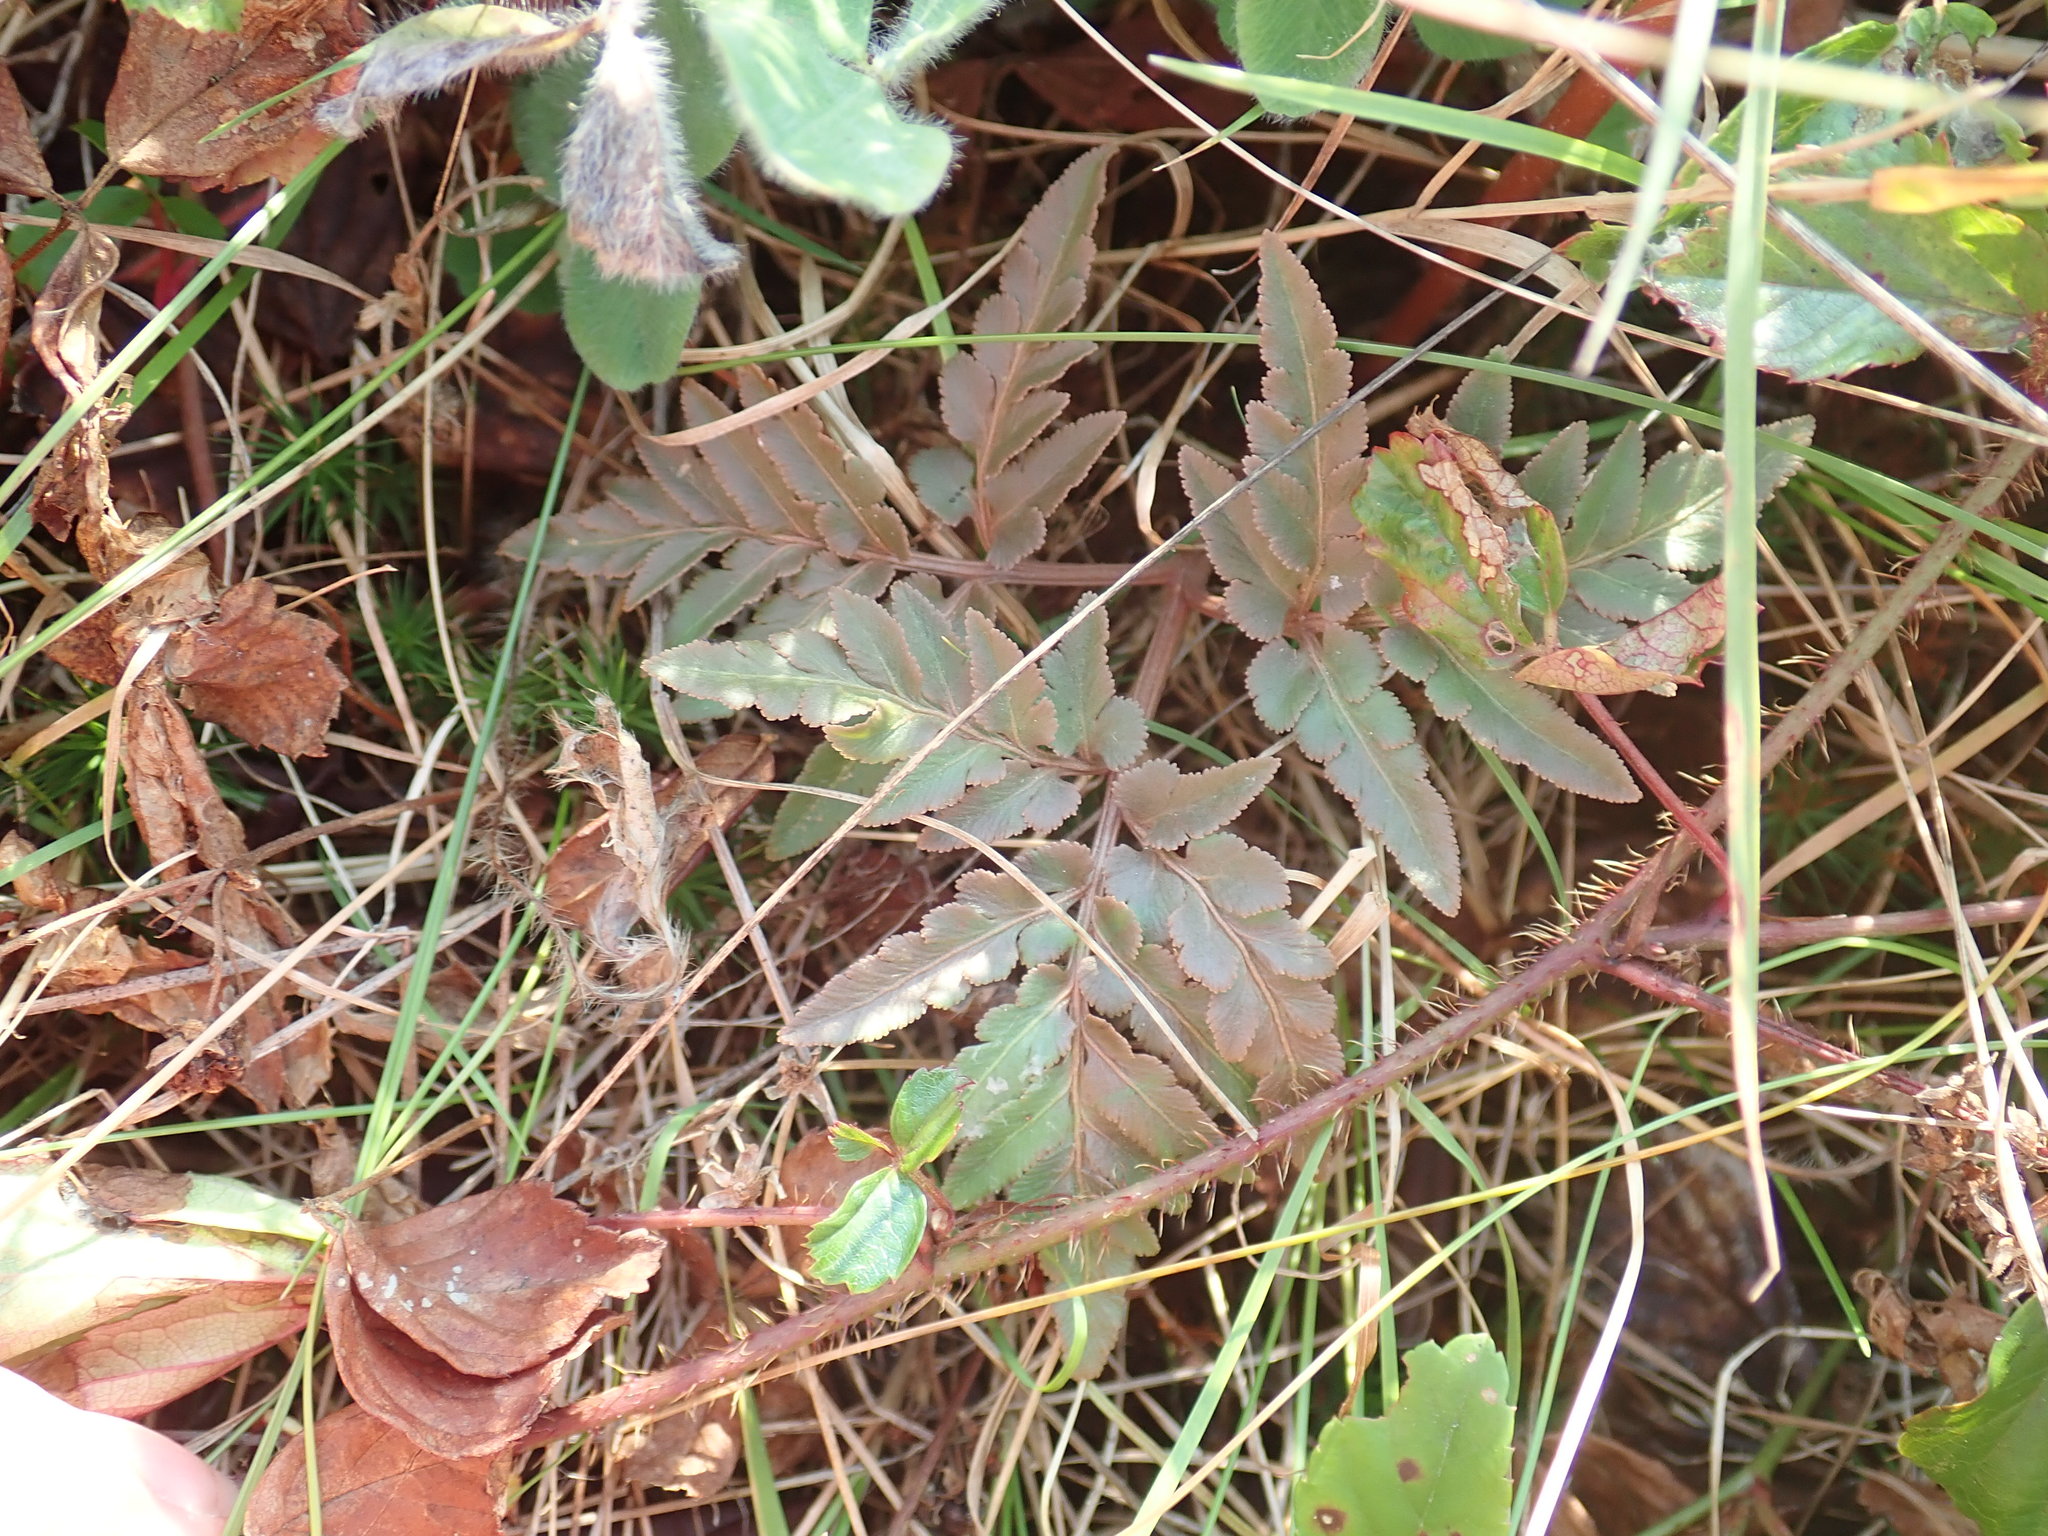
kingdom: Plantae
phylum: Tracheophyta
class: Polypodiopsida
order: Ophioglossales
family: Ophioglossaceae
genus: Sceptridium
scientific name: Sceptridium dissectum
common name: Cut-leaved grapefern
